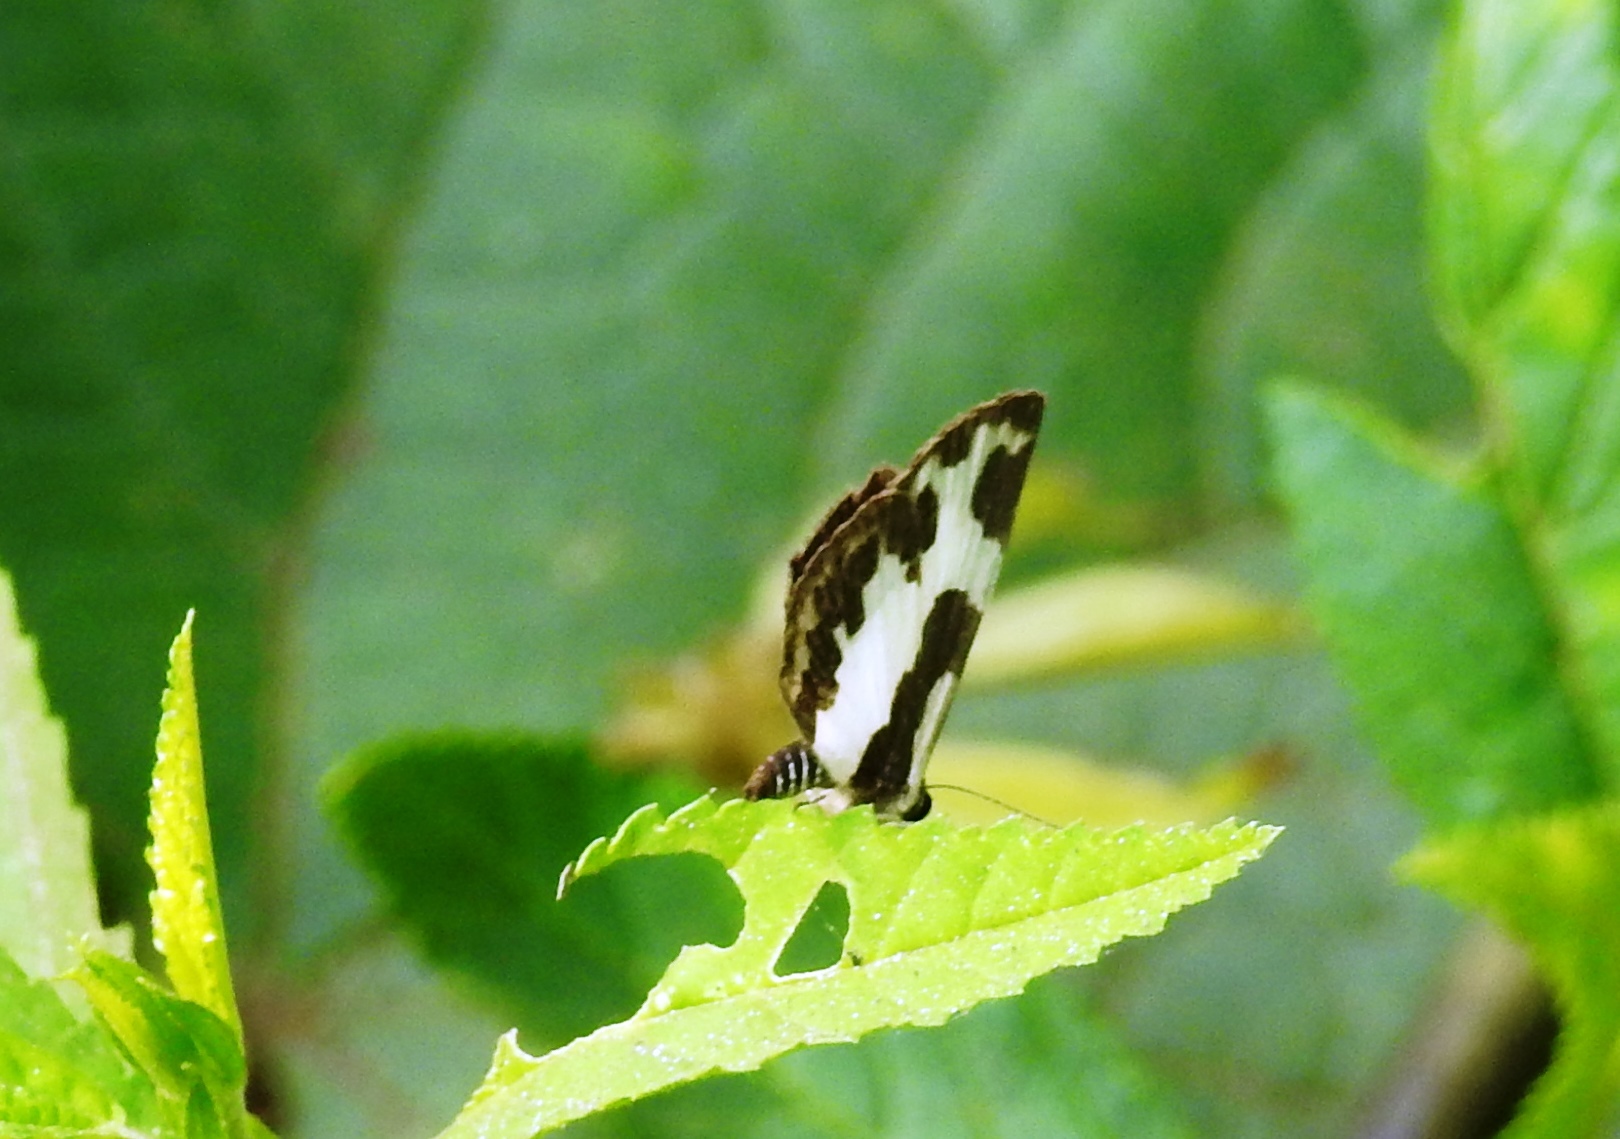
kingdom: Animalia
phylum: Arthropoda
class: Insecta
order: Lepidoptera
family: Lycaenidae
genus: Caleta
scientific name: Caleta elna
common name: Elbowed pierrot
